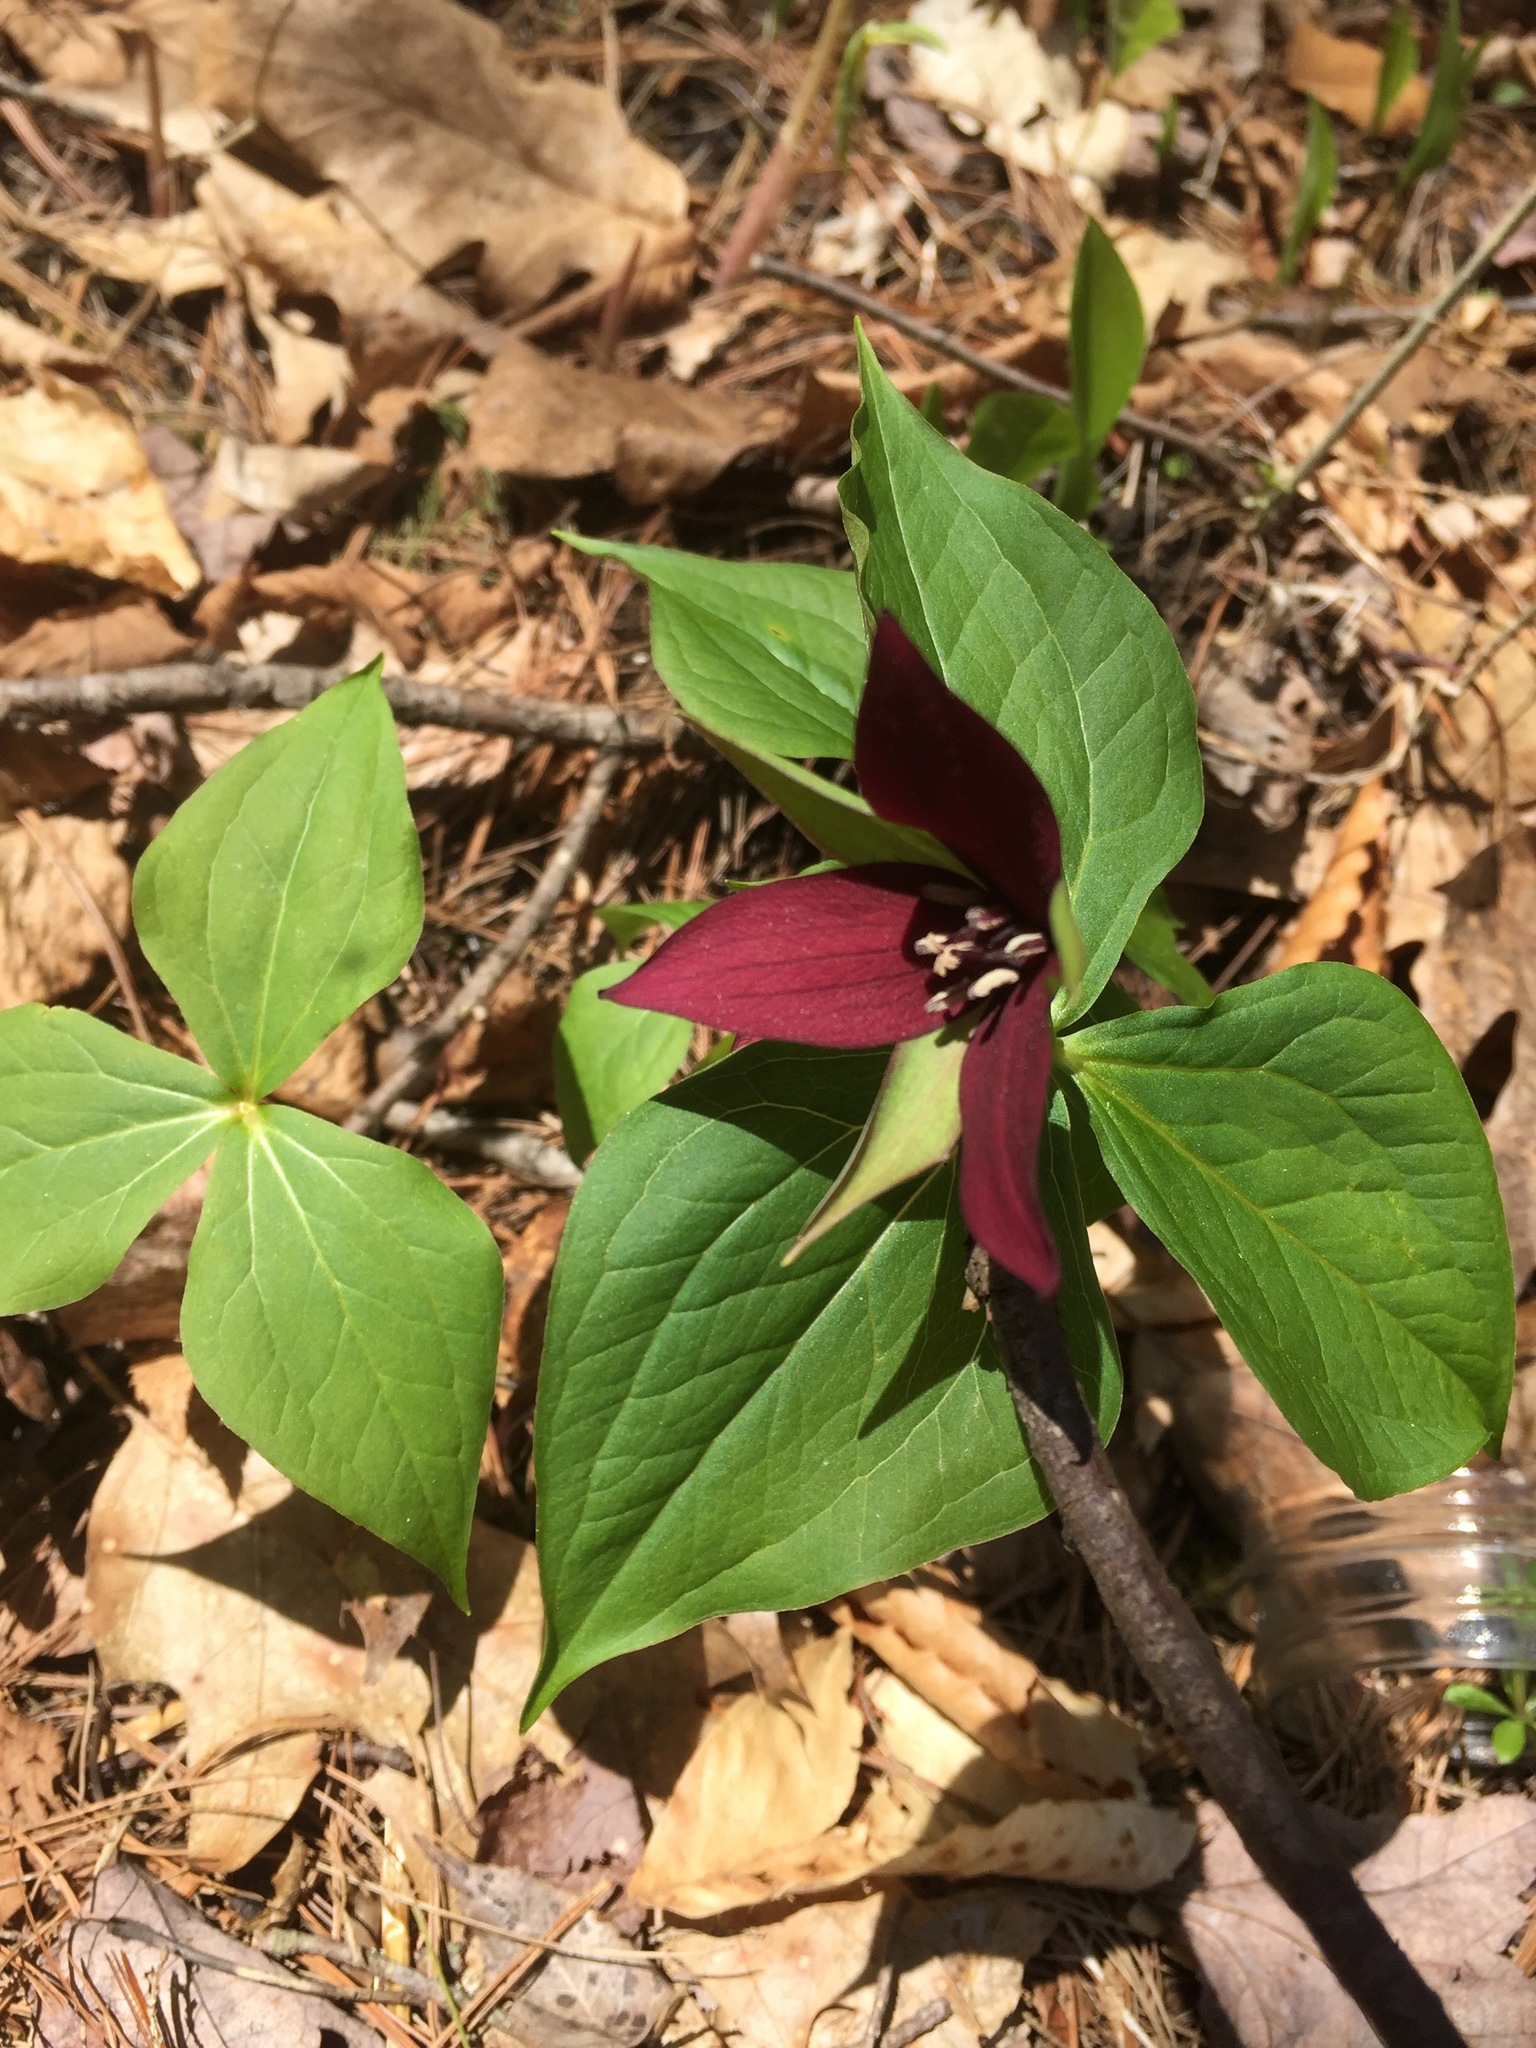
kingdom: Plantae
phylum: Tracheophyta
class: Liliopsida
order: Liliales
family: Melanthiaceae
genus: Trillium
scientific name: Trillium erectum
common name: Purple trillium
